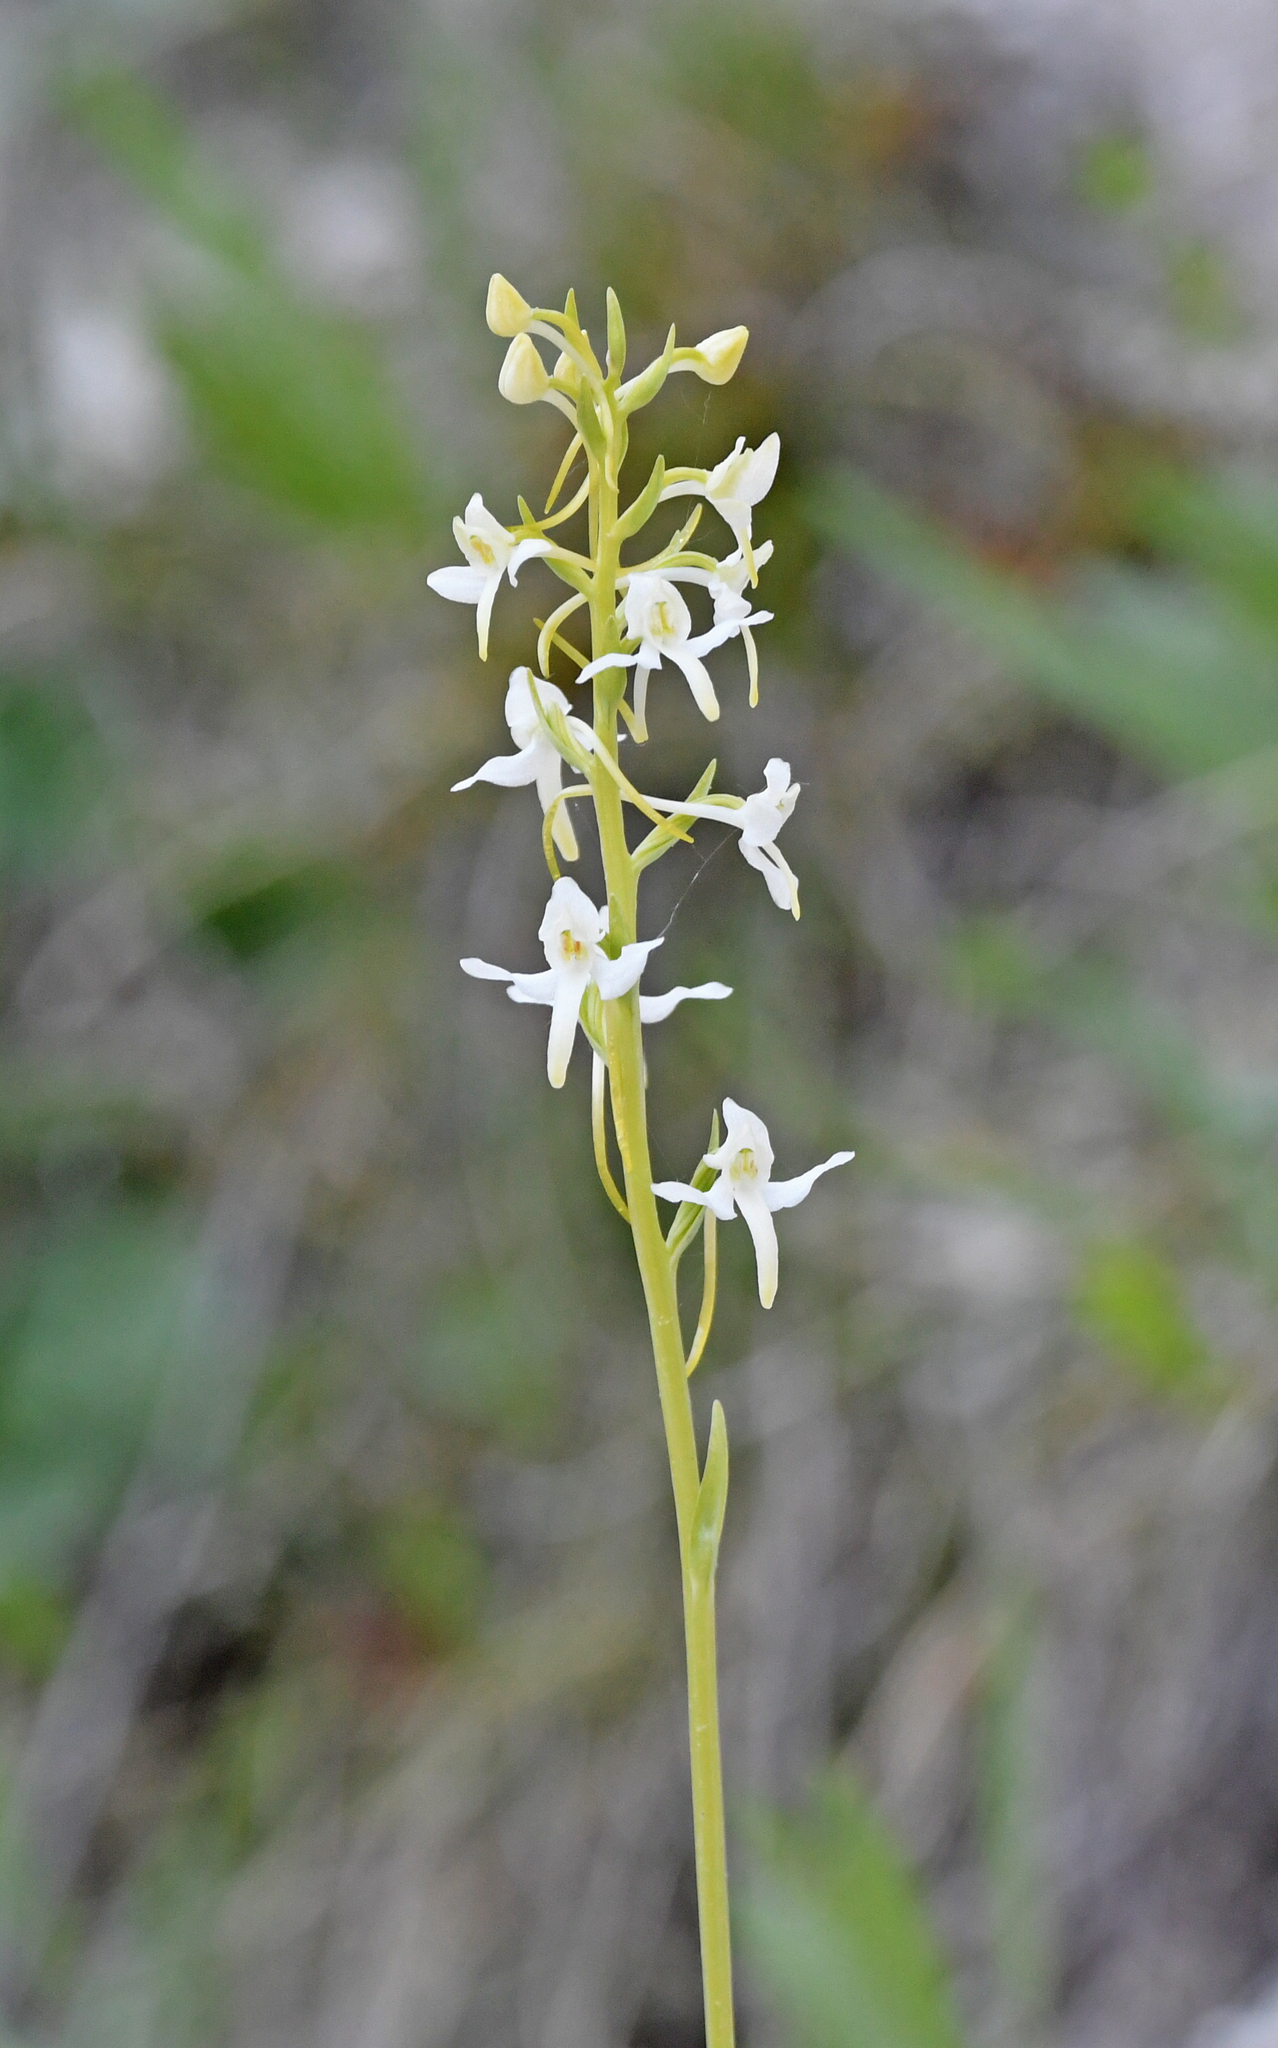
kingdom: Plantae
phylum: Tracheophyta
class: Liliopsida
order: Asparagales
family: Orchidaceae
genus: Platanthera
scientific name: Platanthera bifolia
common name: Lesser butterfly-orchid
